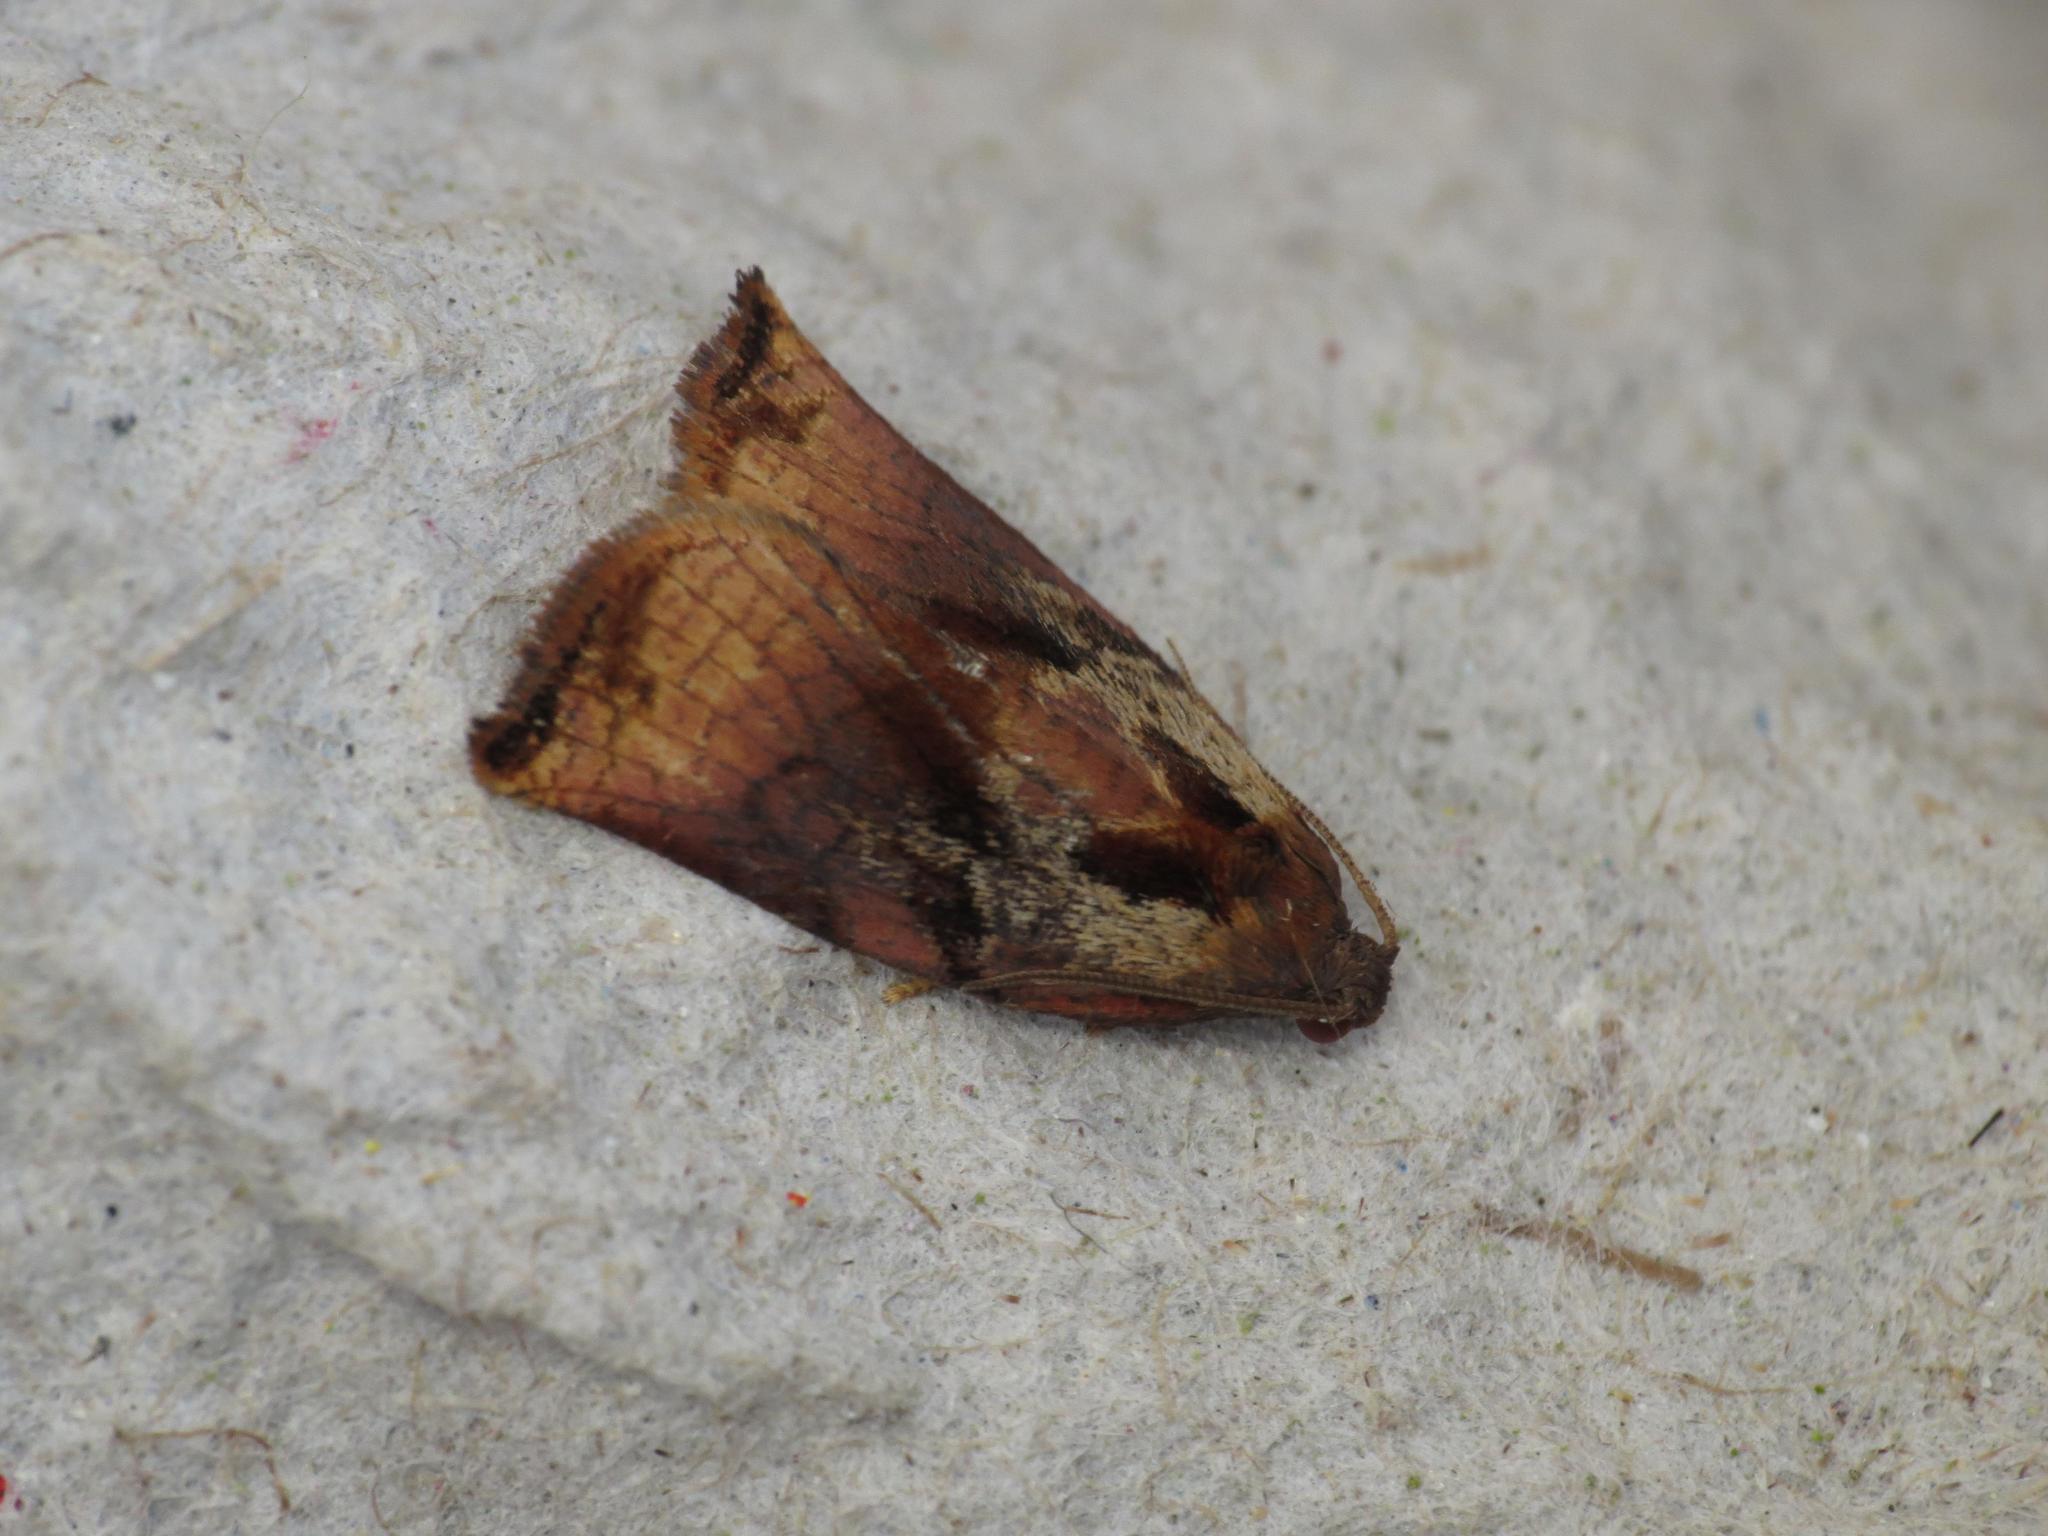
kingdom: Animalia
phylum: Arthropoda
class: Insecta
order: Lepidoptera
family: Tortricidae
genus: Archips
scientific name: Archips podana
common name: Large fruit-tree tortrix
